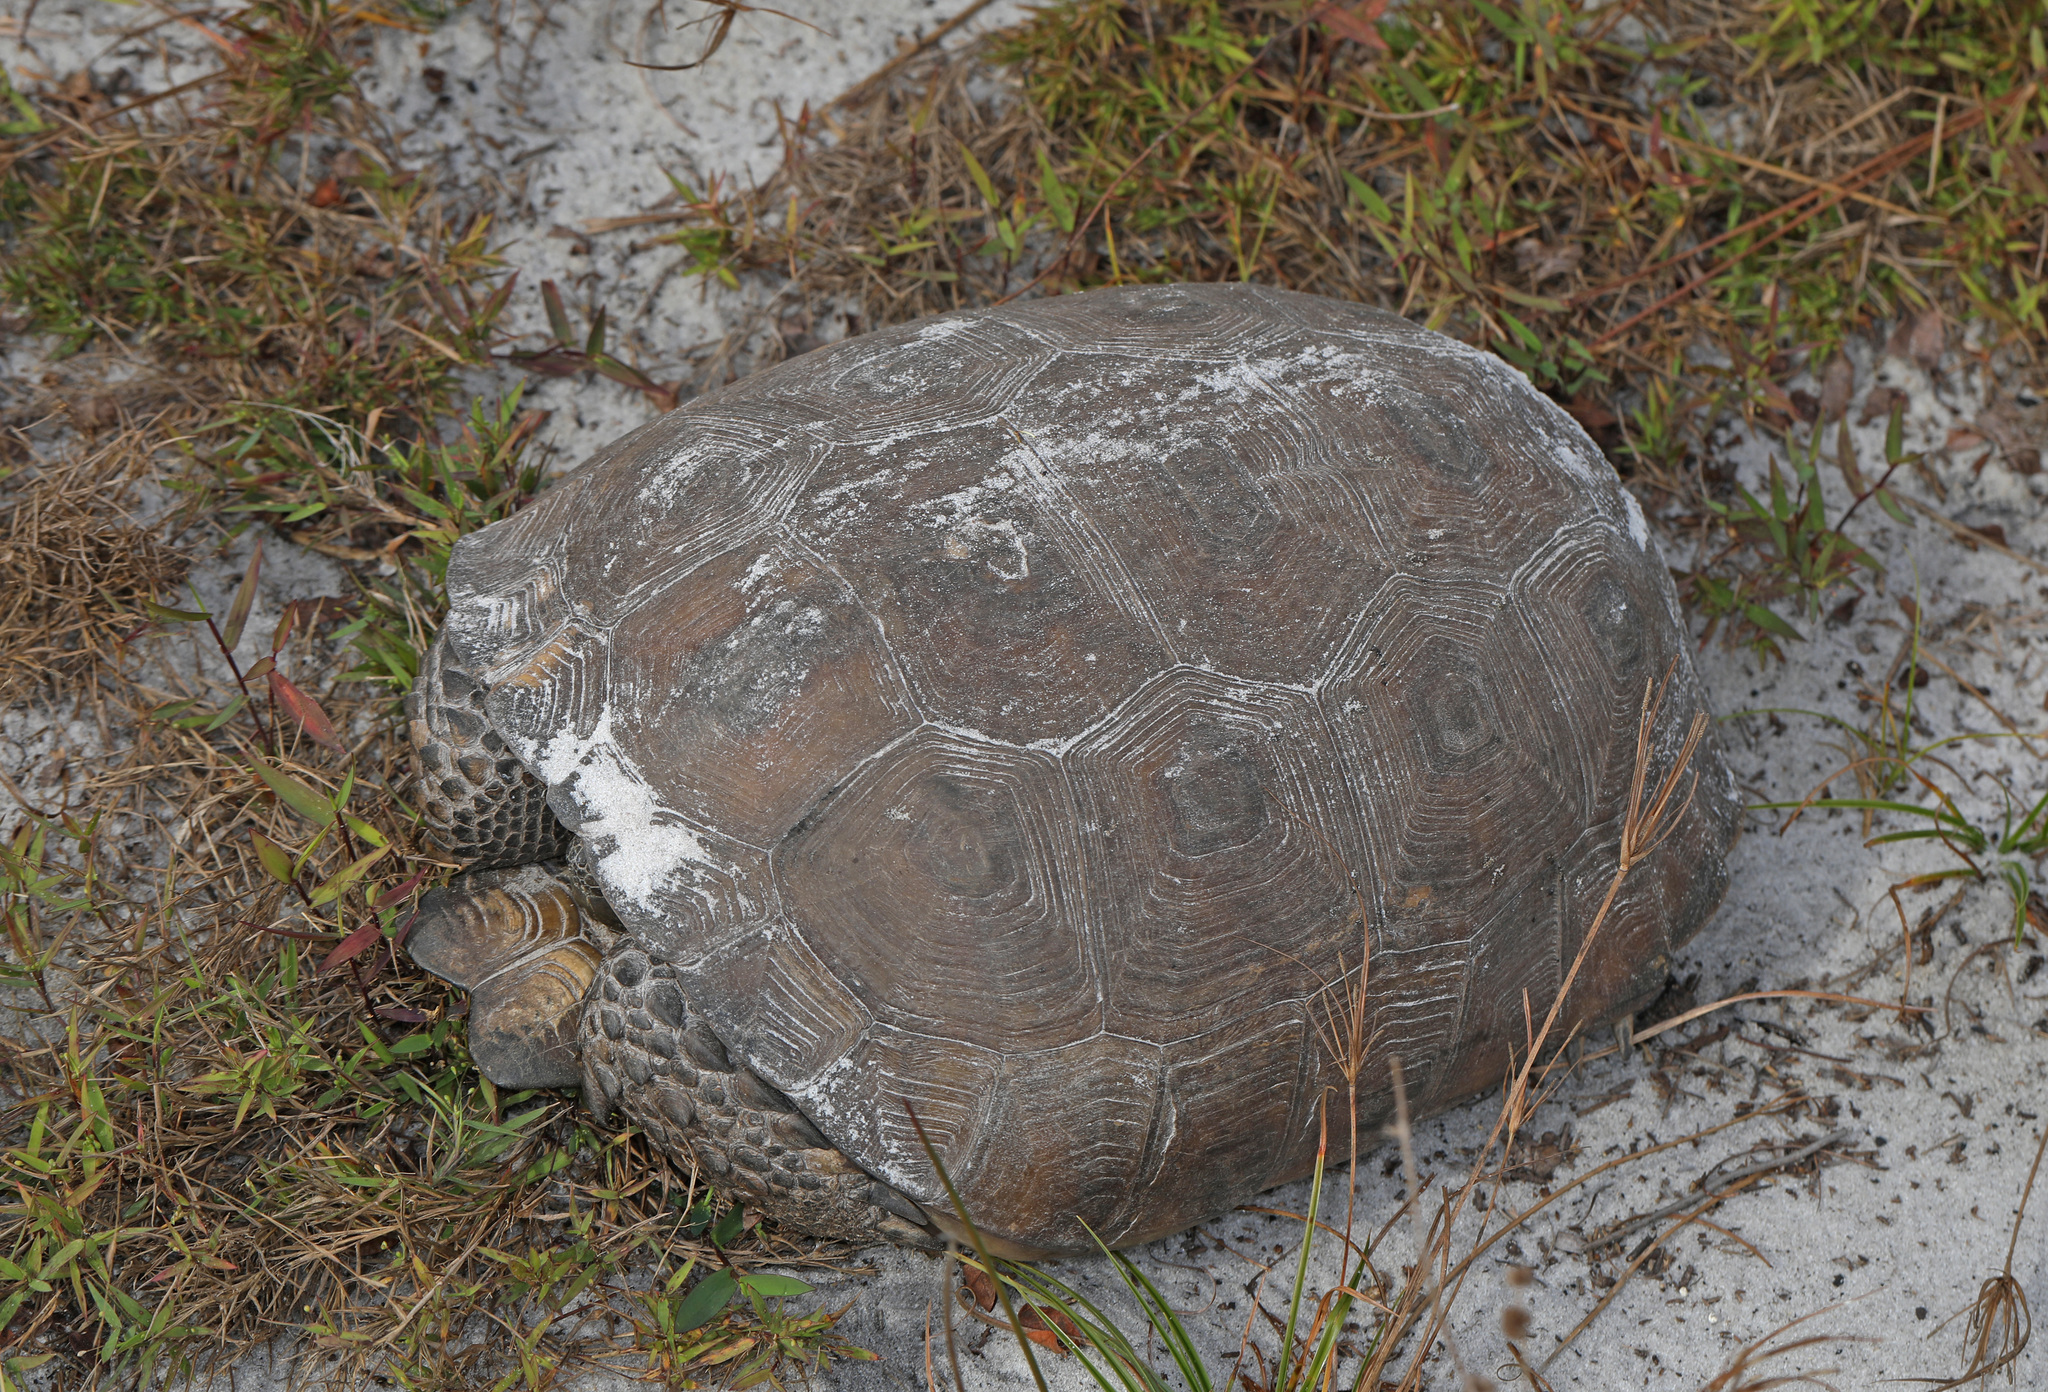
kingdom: Animalia
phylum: Chordata
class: Testudines
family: Testudinidae
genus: Gopherus
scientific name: Gopherus polyphemus
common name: Florida gopher tortoise
